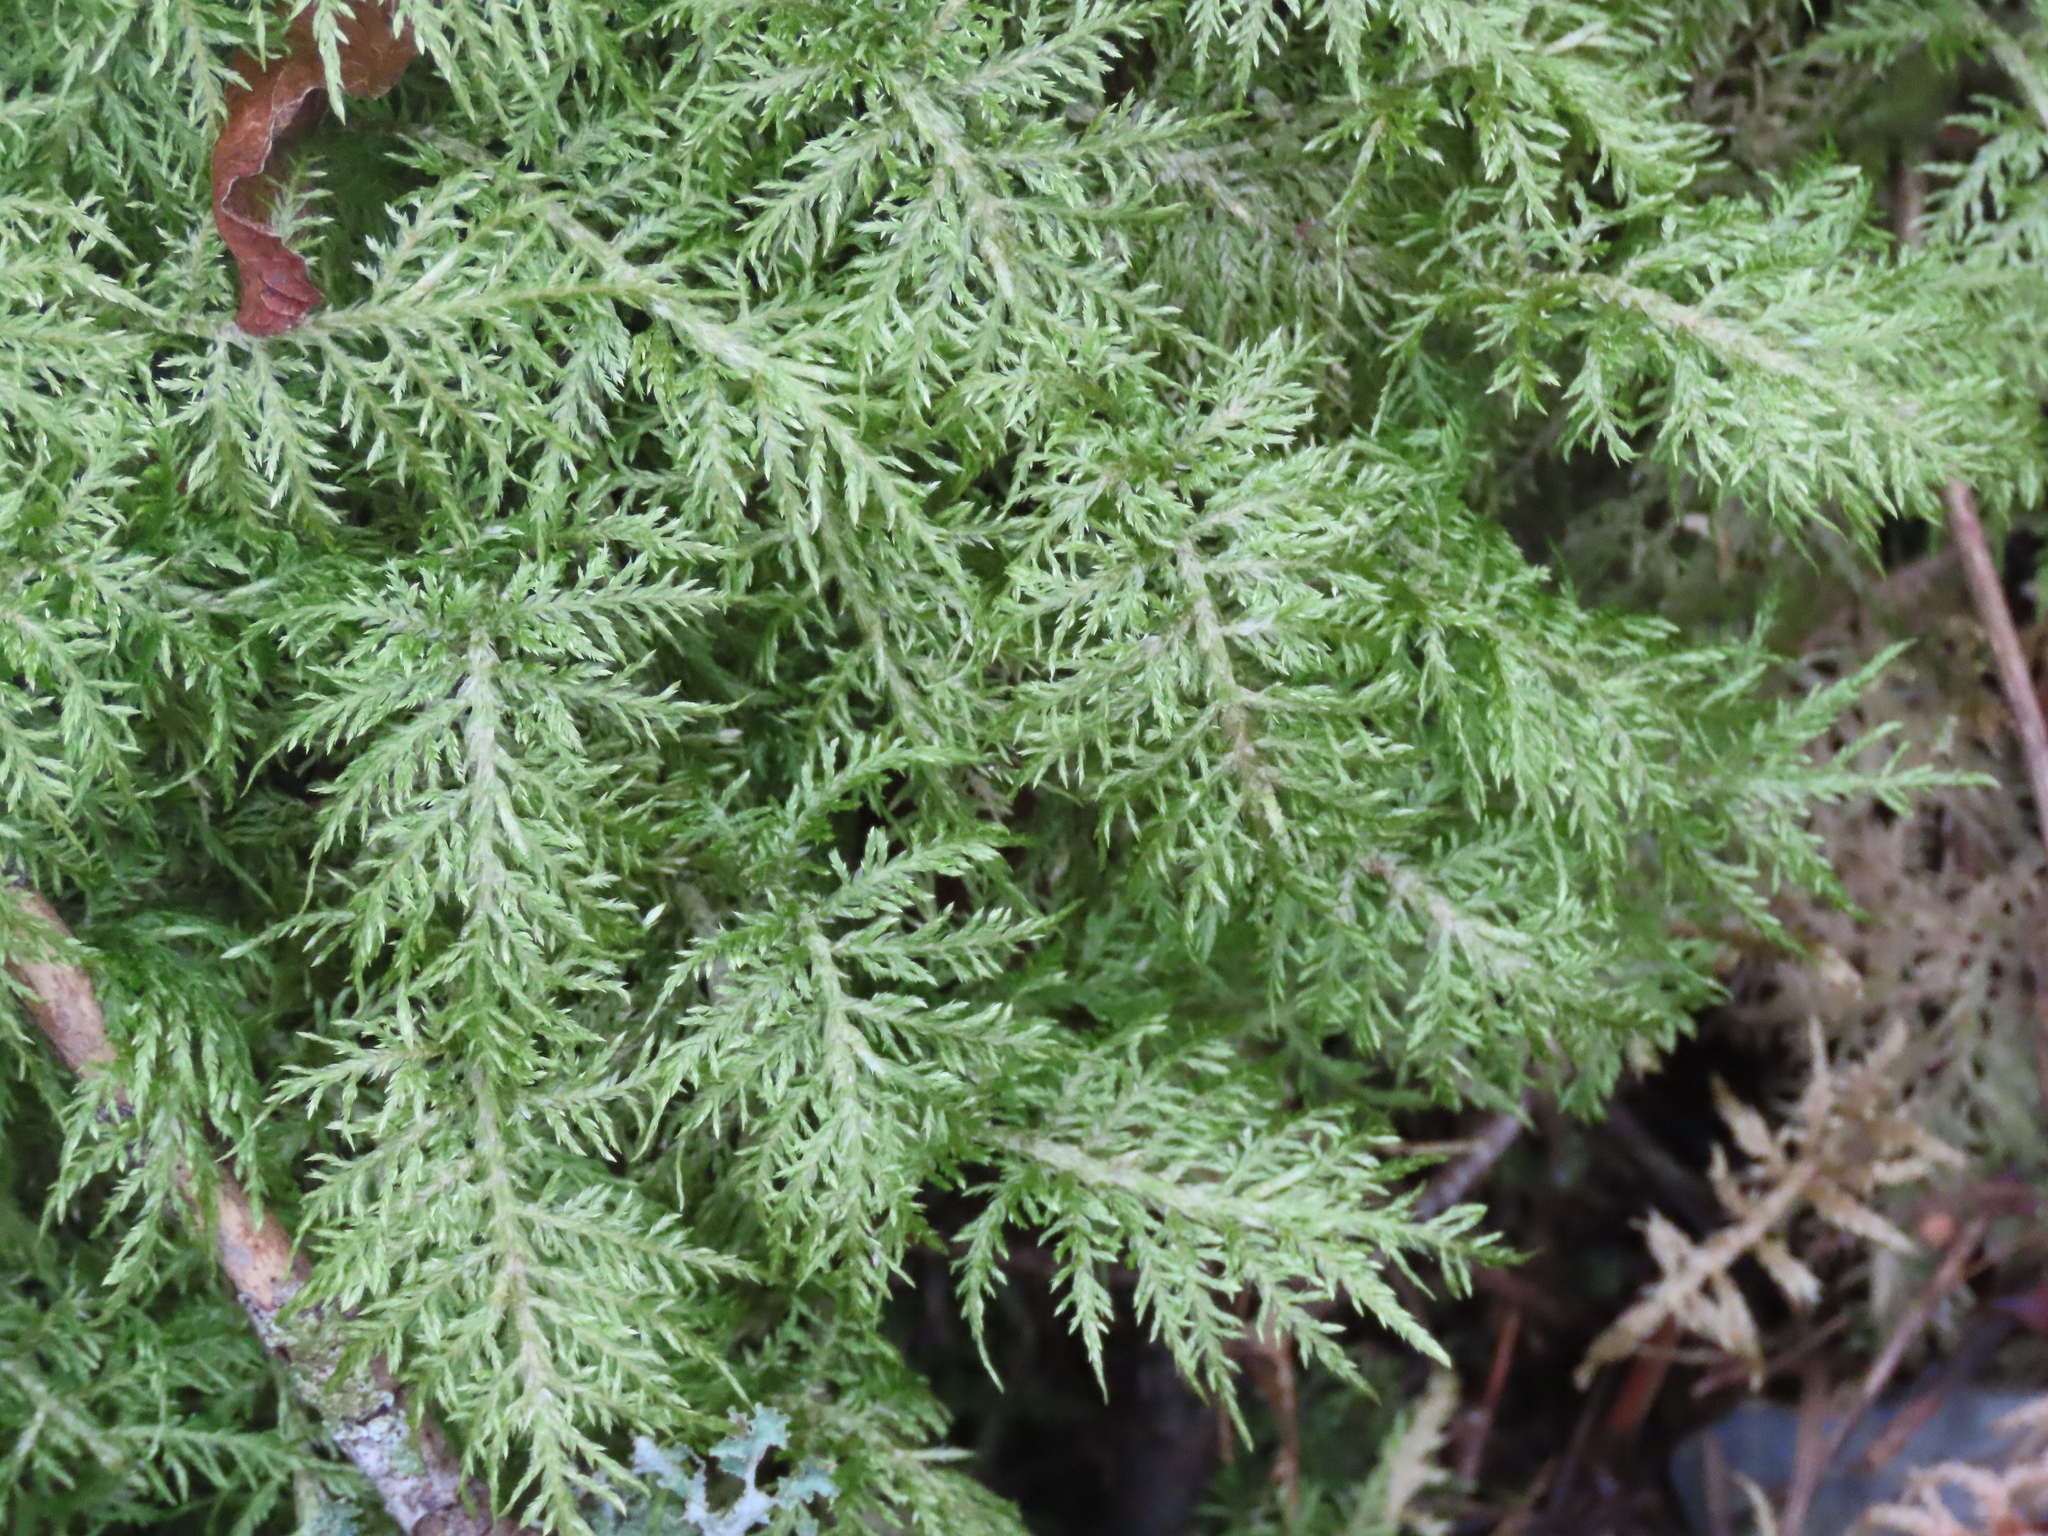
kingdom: Plantae
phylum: Bryophyta
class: Bryopsida
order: Hypnales
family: Hylocomiaceae
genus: Hylocomium
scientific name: Hylocomium splendens
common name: Stairstep moss
